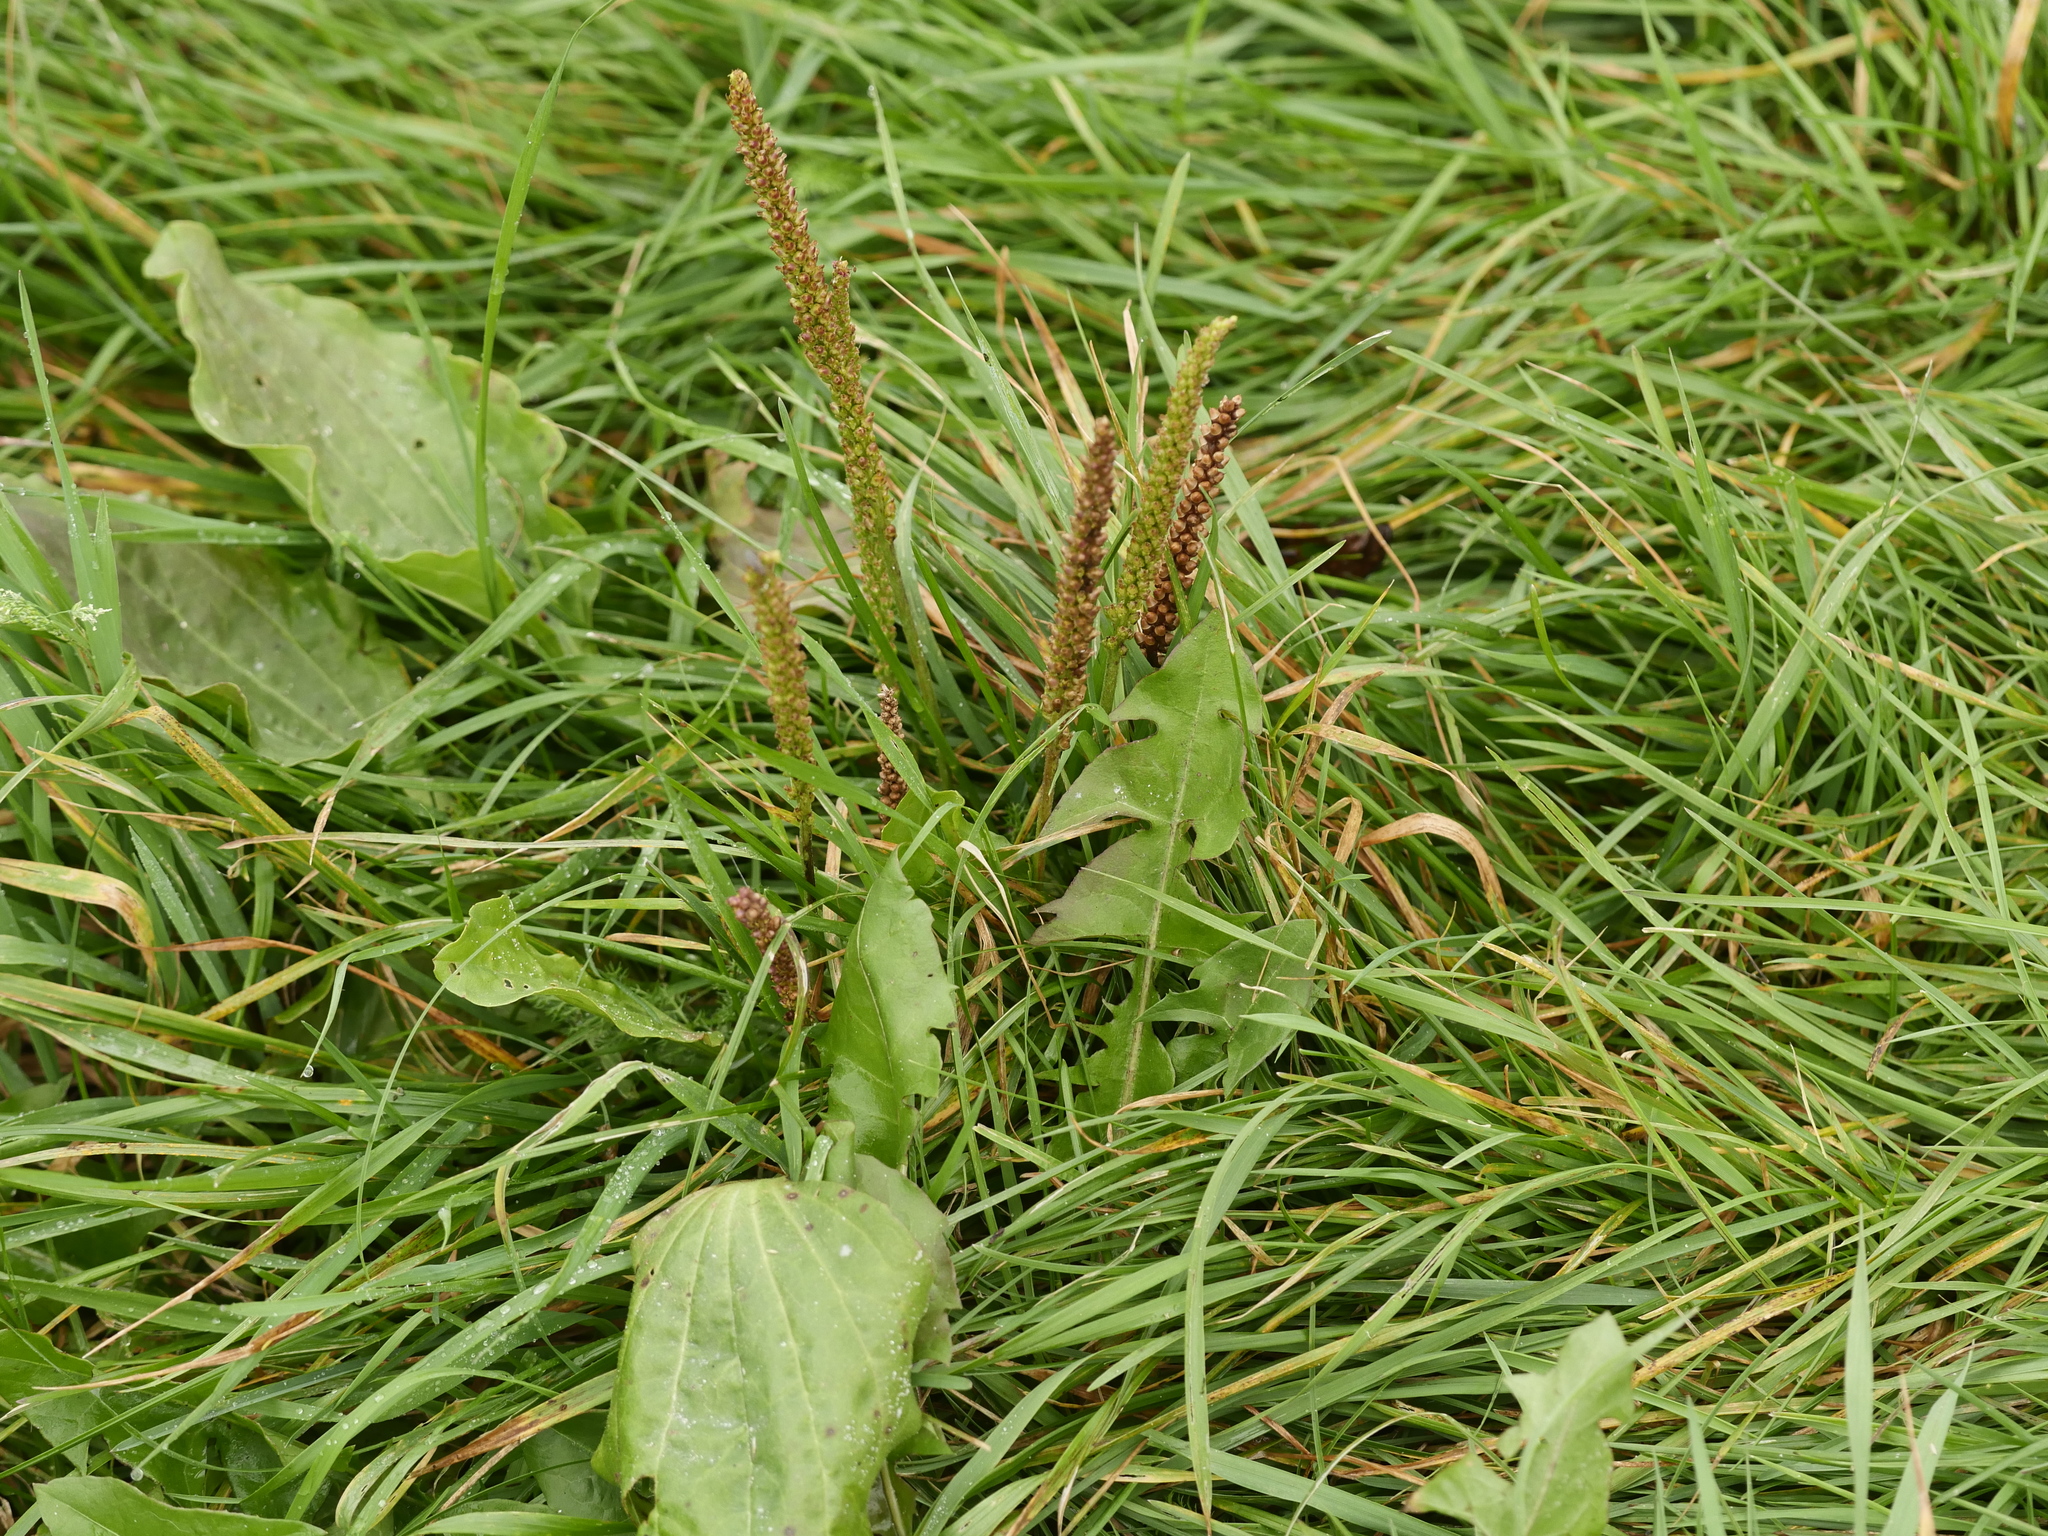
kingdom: Plantae
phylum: Tracheophyta
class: Magnoliopsida
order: Lamiales
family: Plantaginaceae
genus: Plantago
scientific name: Plantago major
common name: Common plantain
